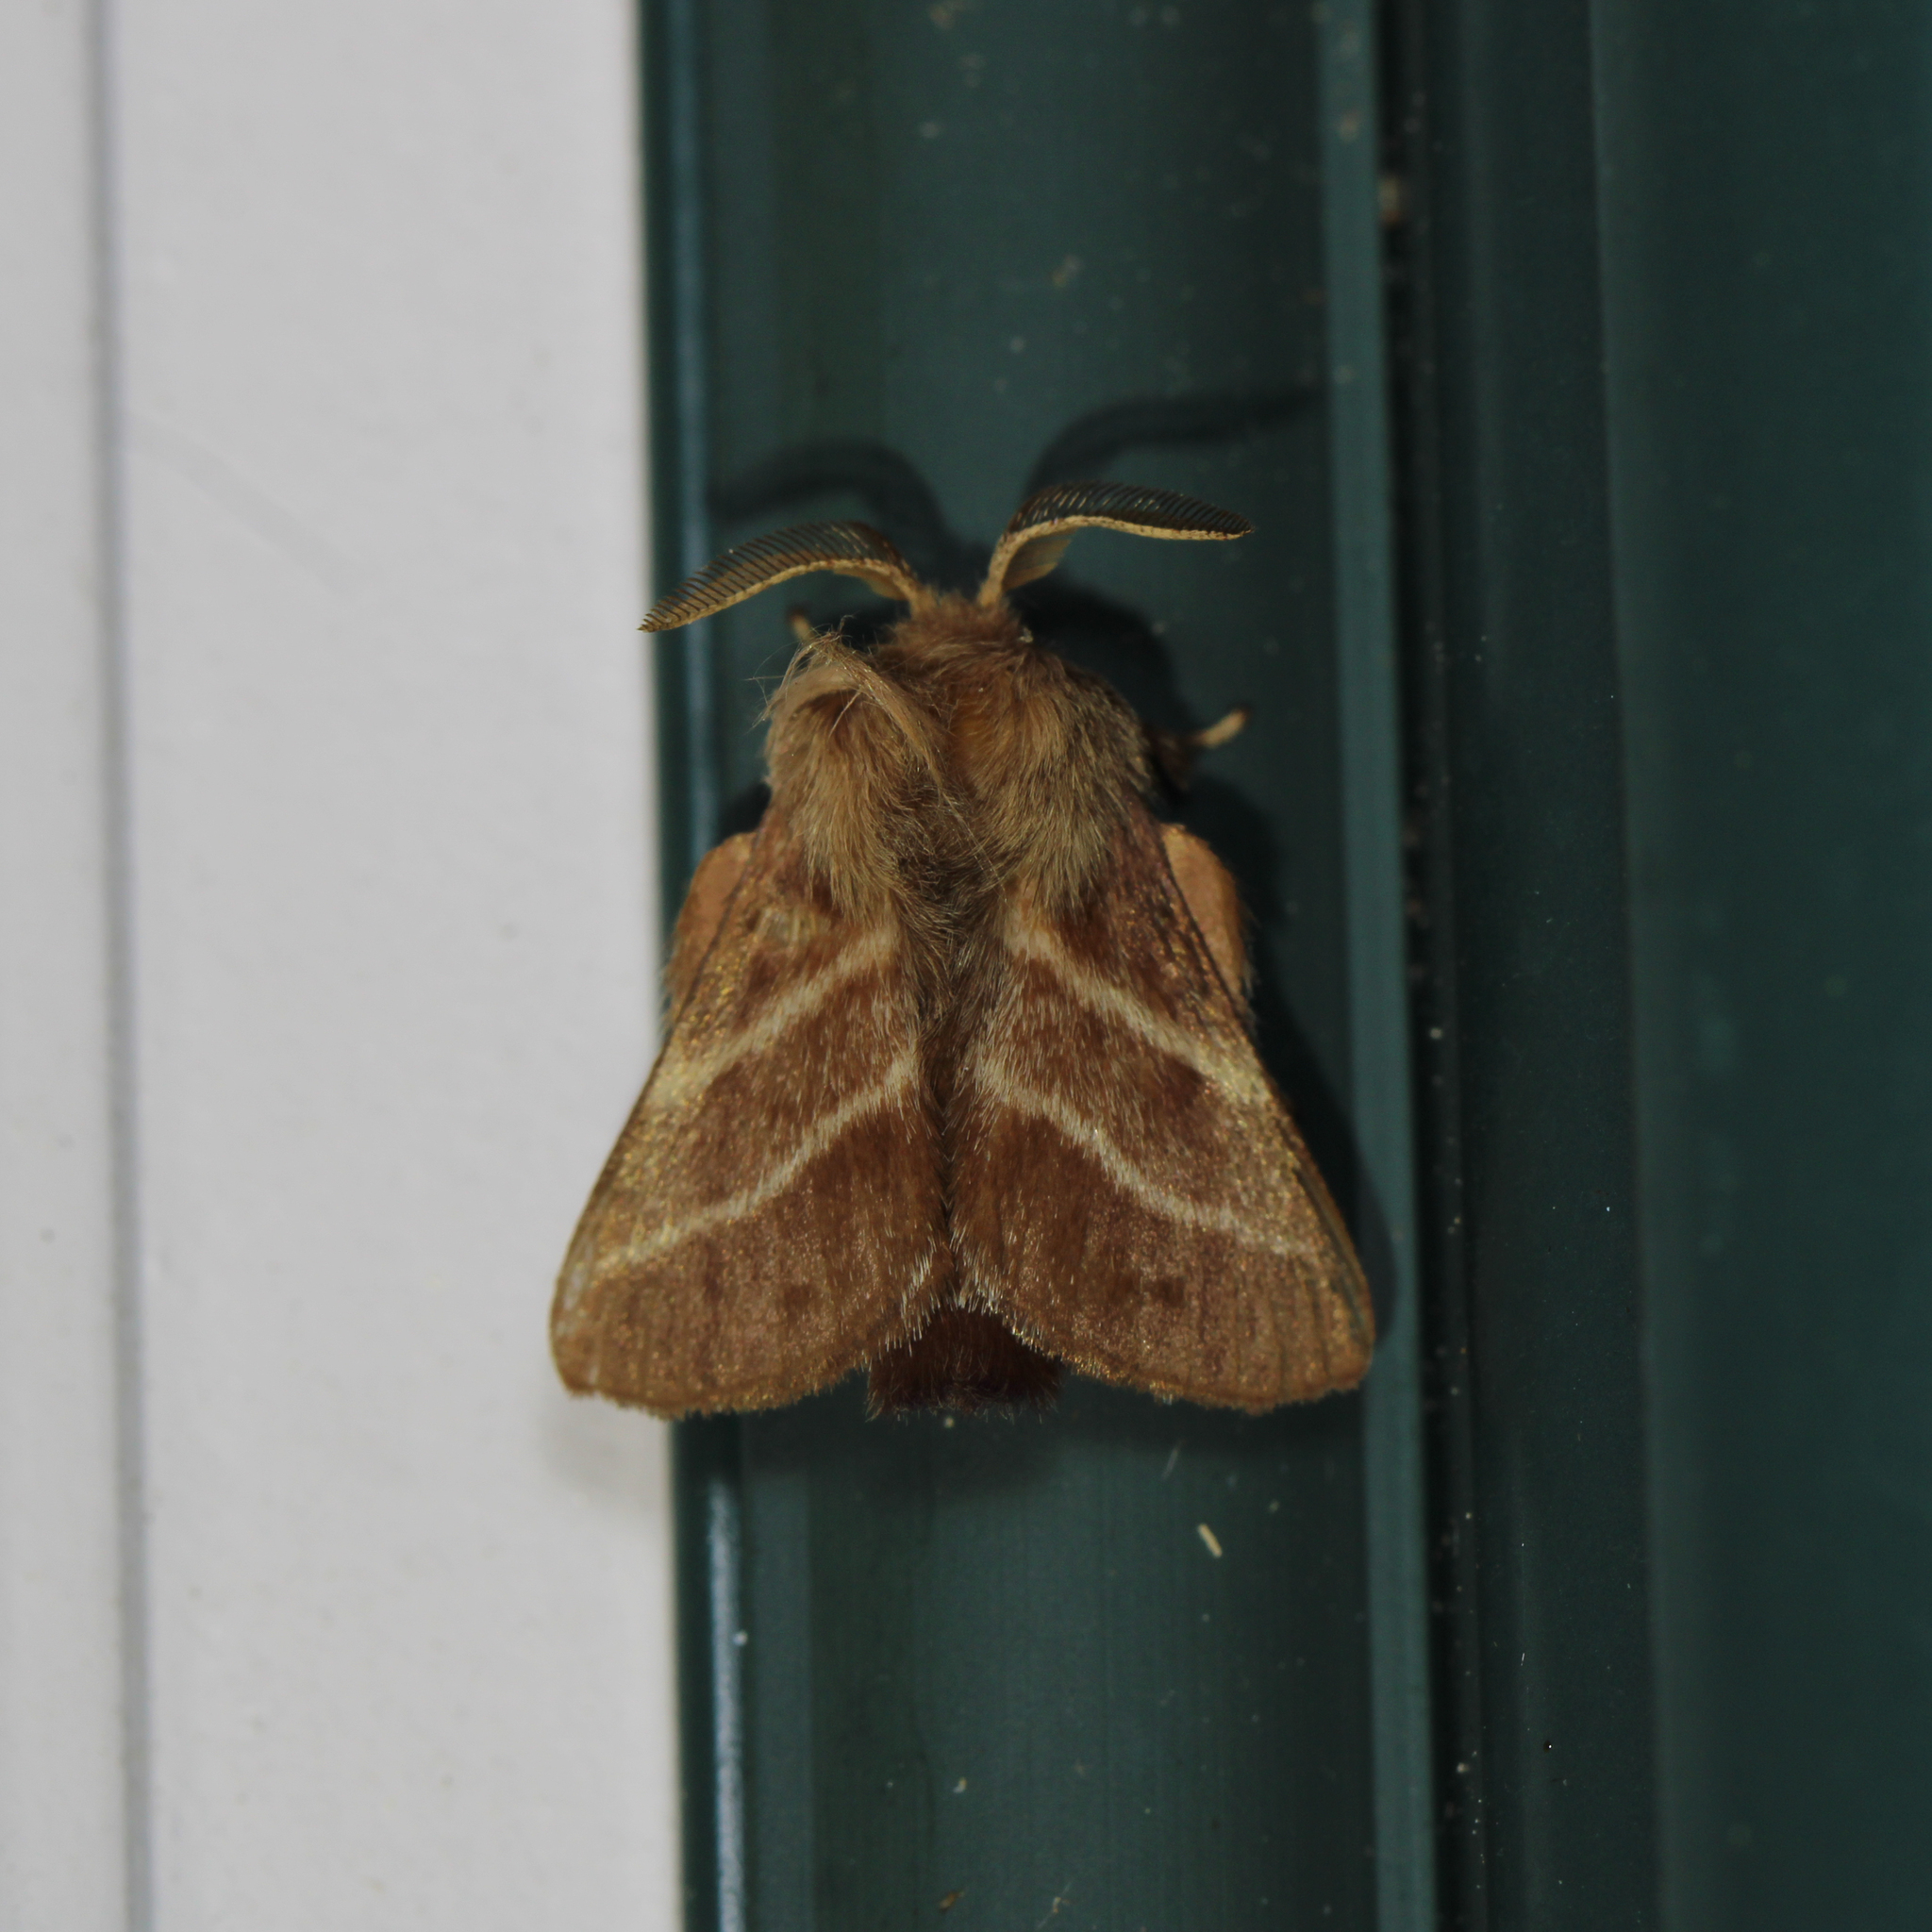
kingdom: Animalia
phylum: Arthropoda
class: Insecta
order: Lepidoptera
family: Lasiocampidae
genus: Malacosoma
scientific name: Malacosoma americana
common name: Eastern tent caterpillar moth
